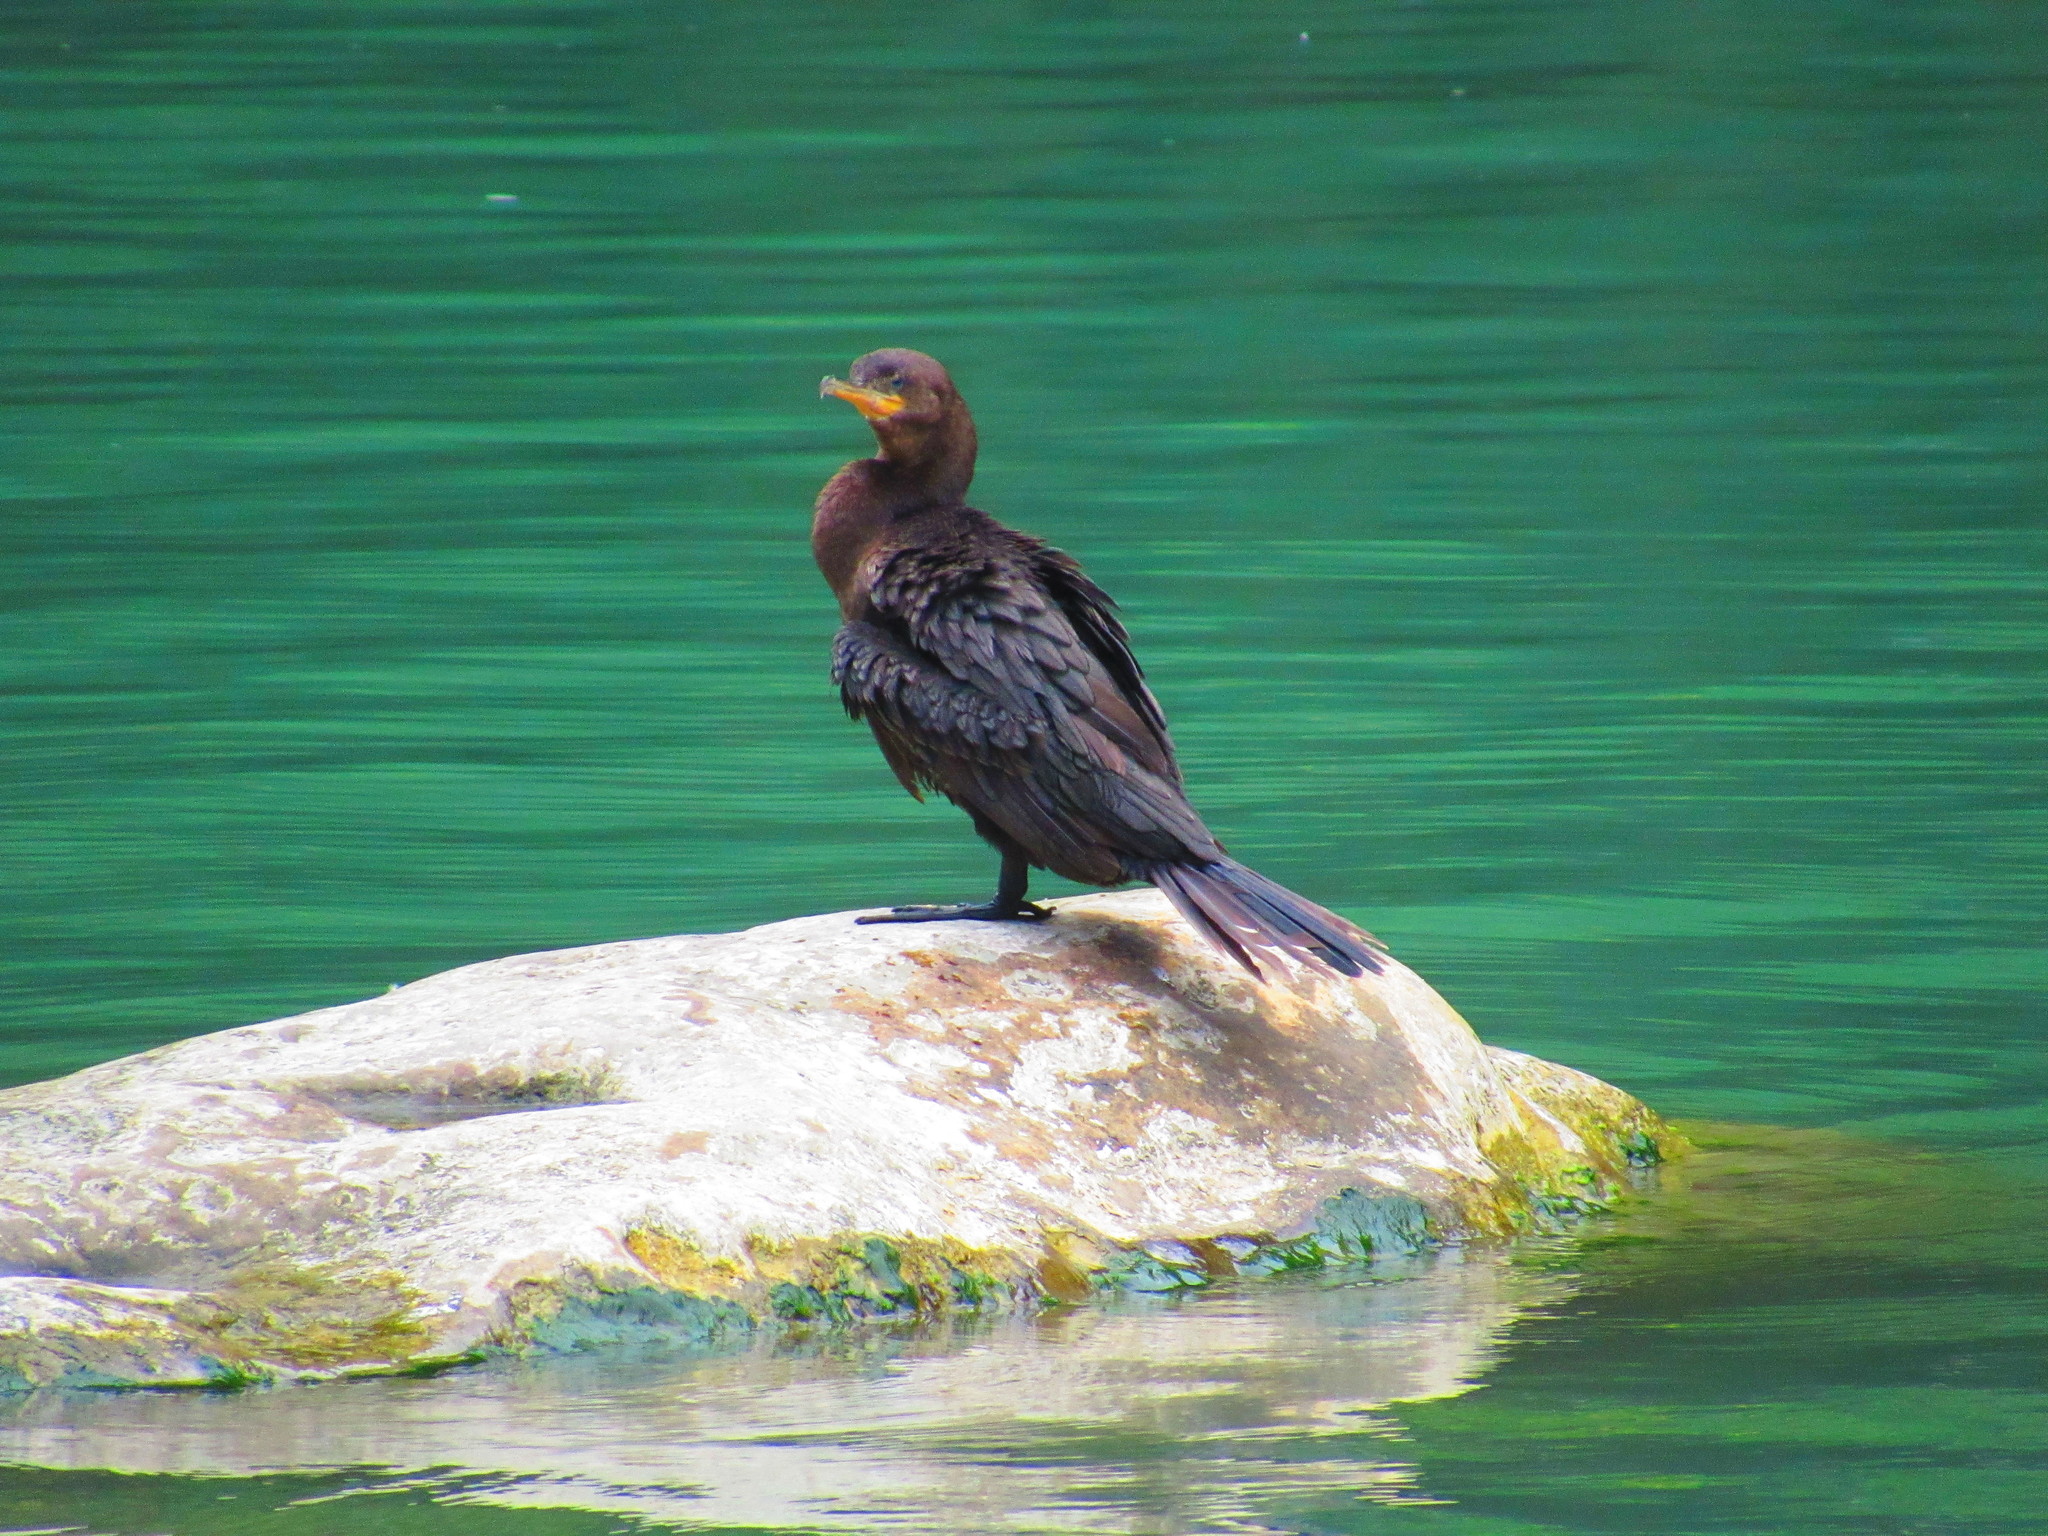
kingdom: Animalia
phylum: Chordata
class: Aves
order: Suliformes
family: Phalacrocoracidae
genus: Phalacrocorax
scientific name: Phalacrocorax brasilianus
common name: Neotropic cormorant
